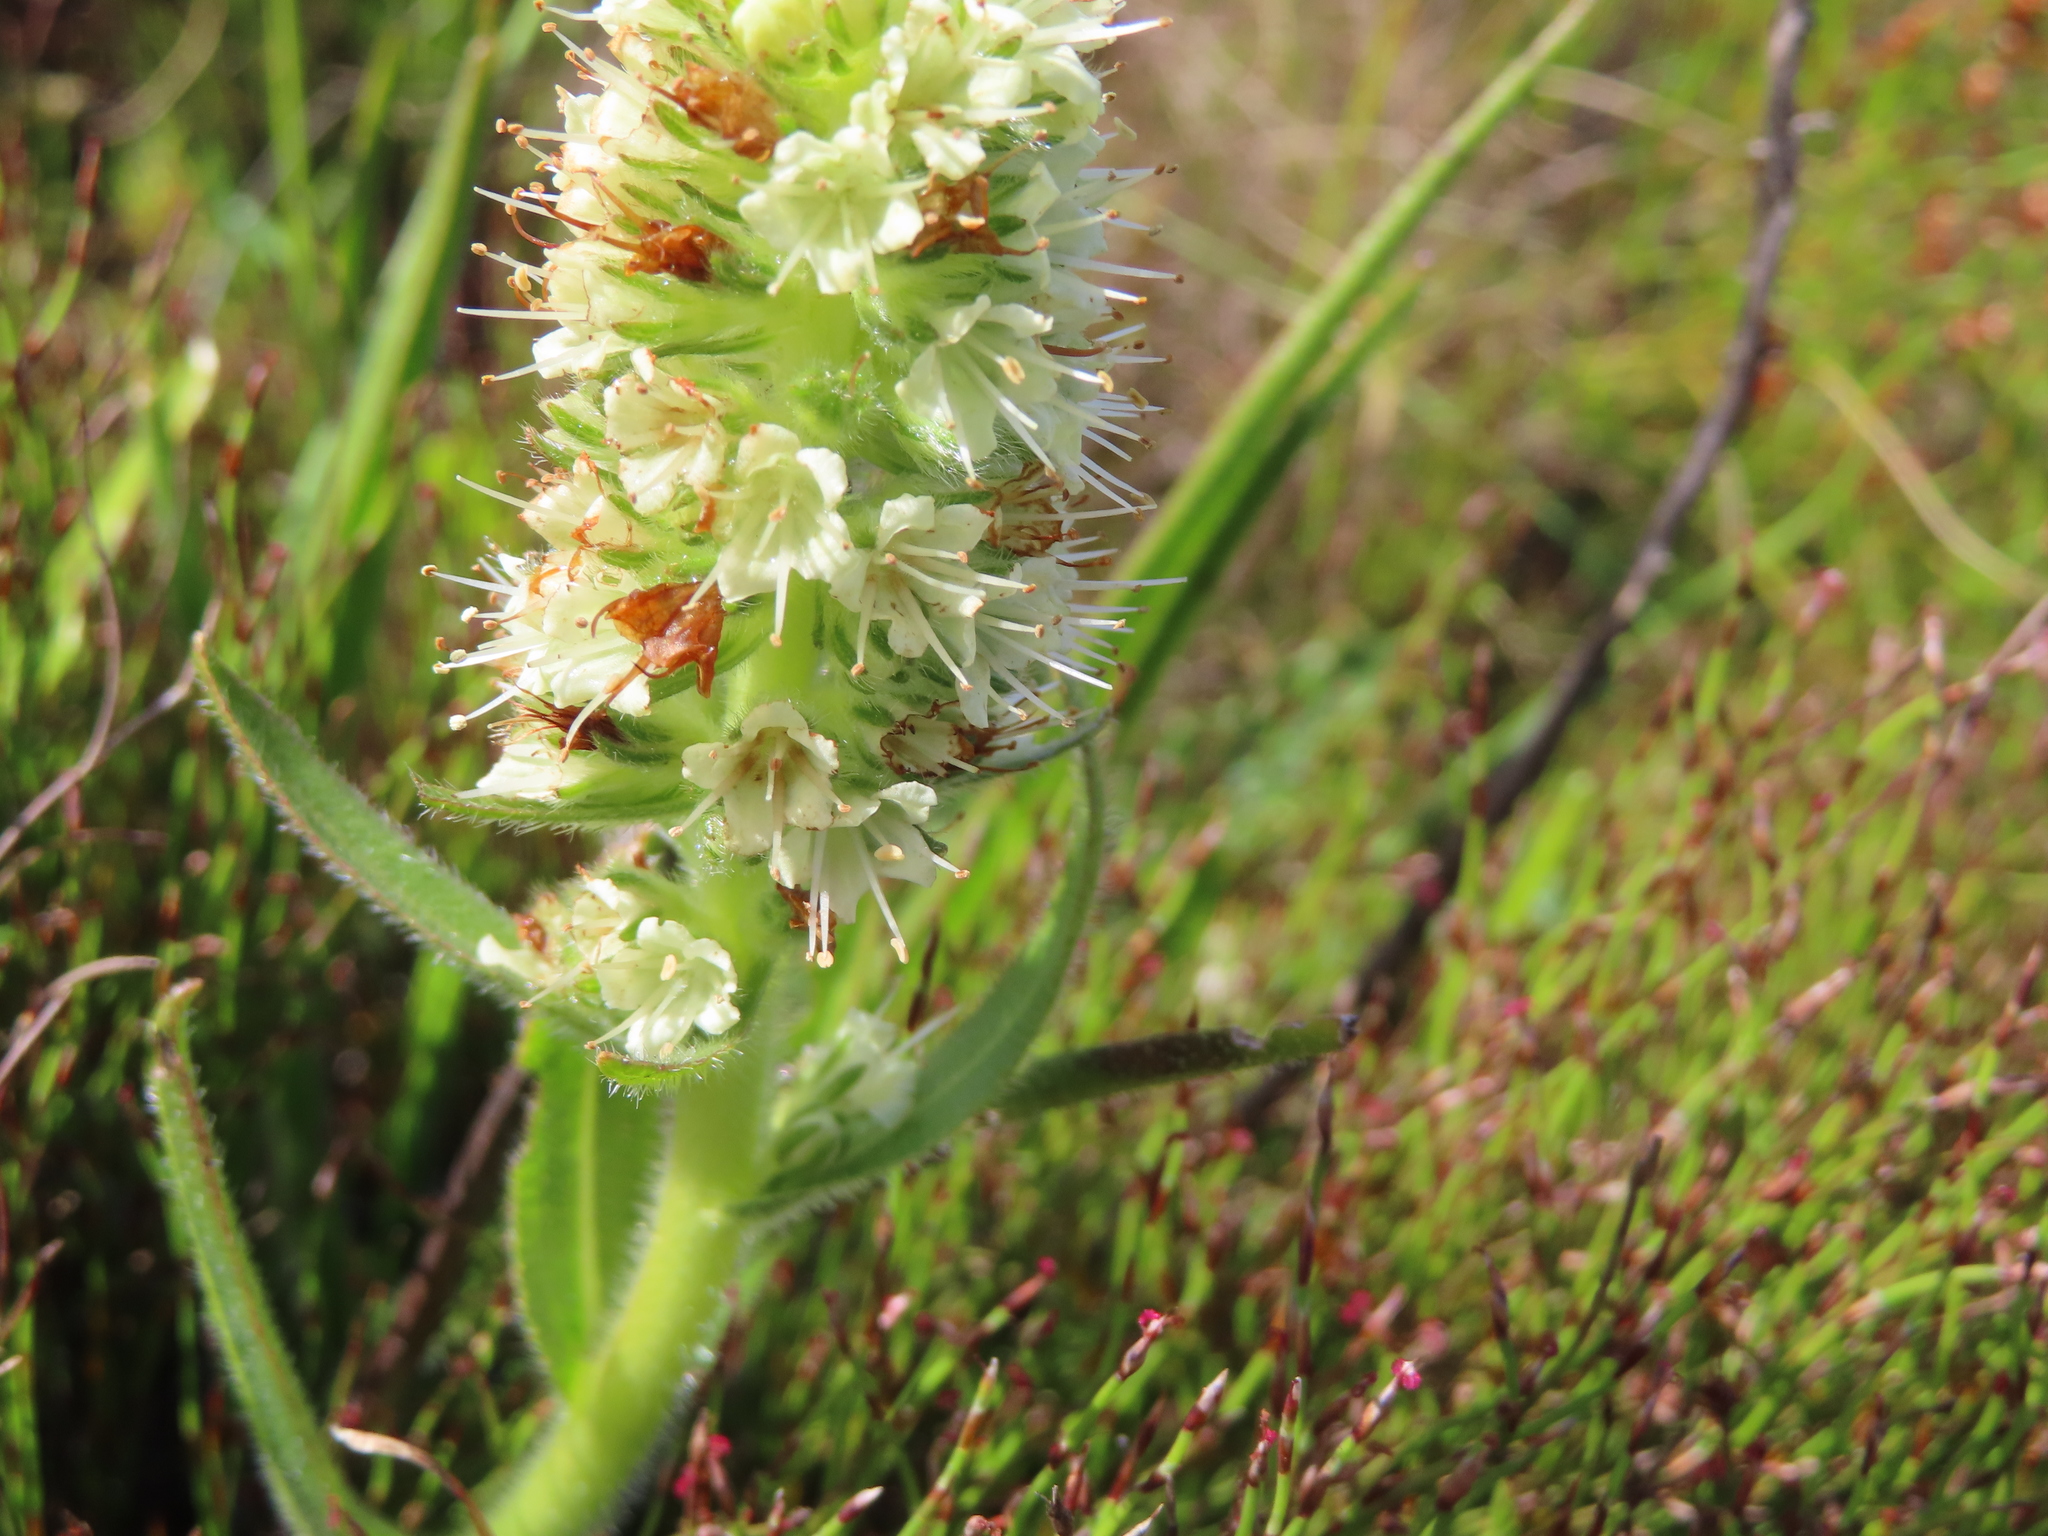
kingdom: Plantae
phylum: Tracheophyta
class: Magnoliopsida
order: Boraginales
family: Boraginaceae
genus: Lobostemon
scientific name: Lobostemon splendens
